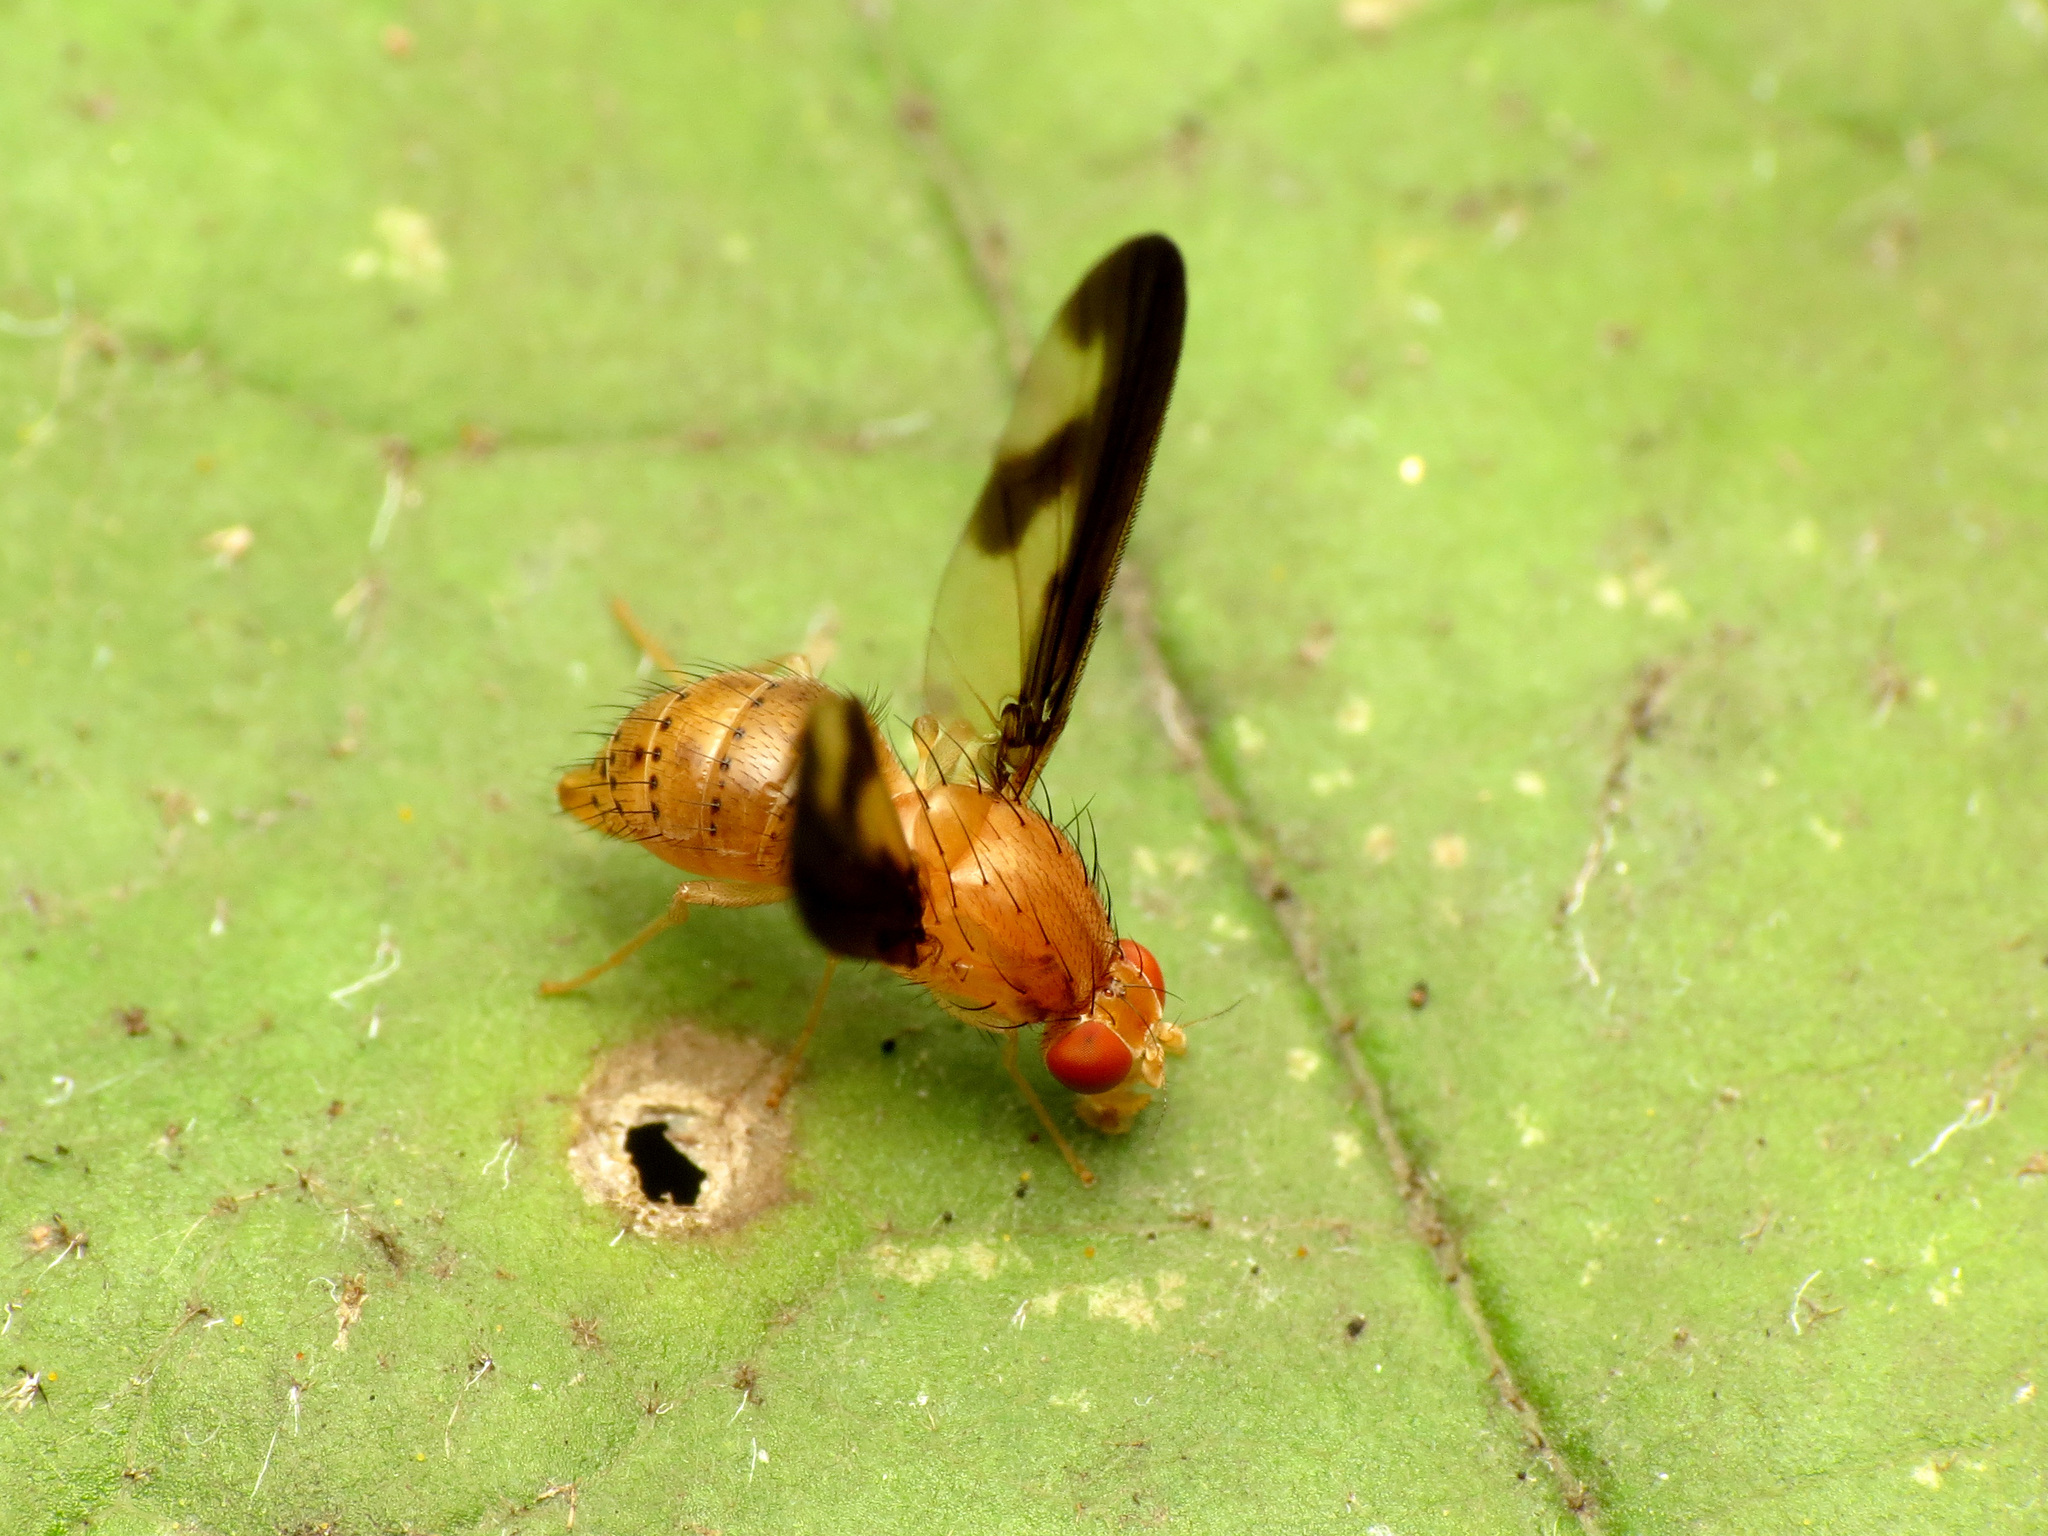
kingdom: Animalia
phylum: Arthropoda
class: Insecta
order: Diptera
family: Pallopteridae
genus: Toxonevra
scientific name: Toxonevra superba
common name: Antlered flutter fly
